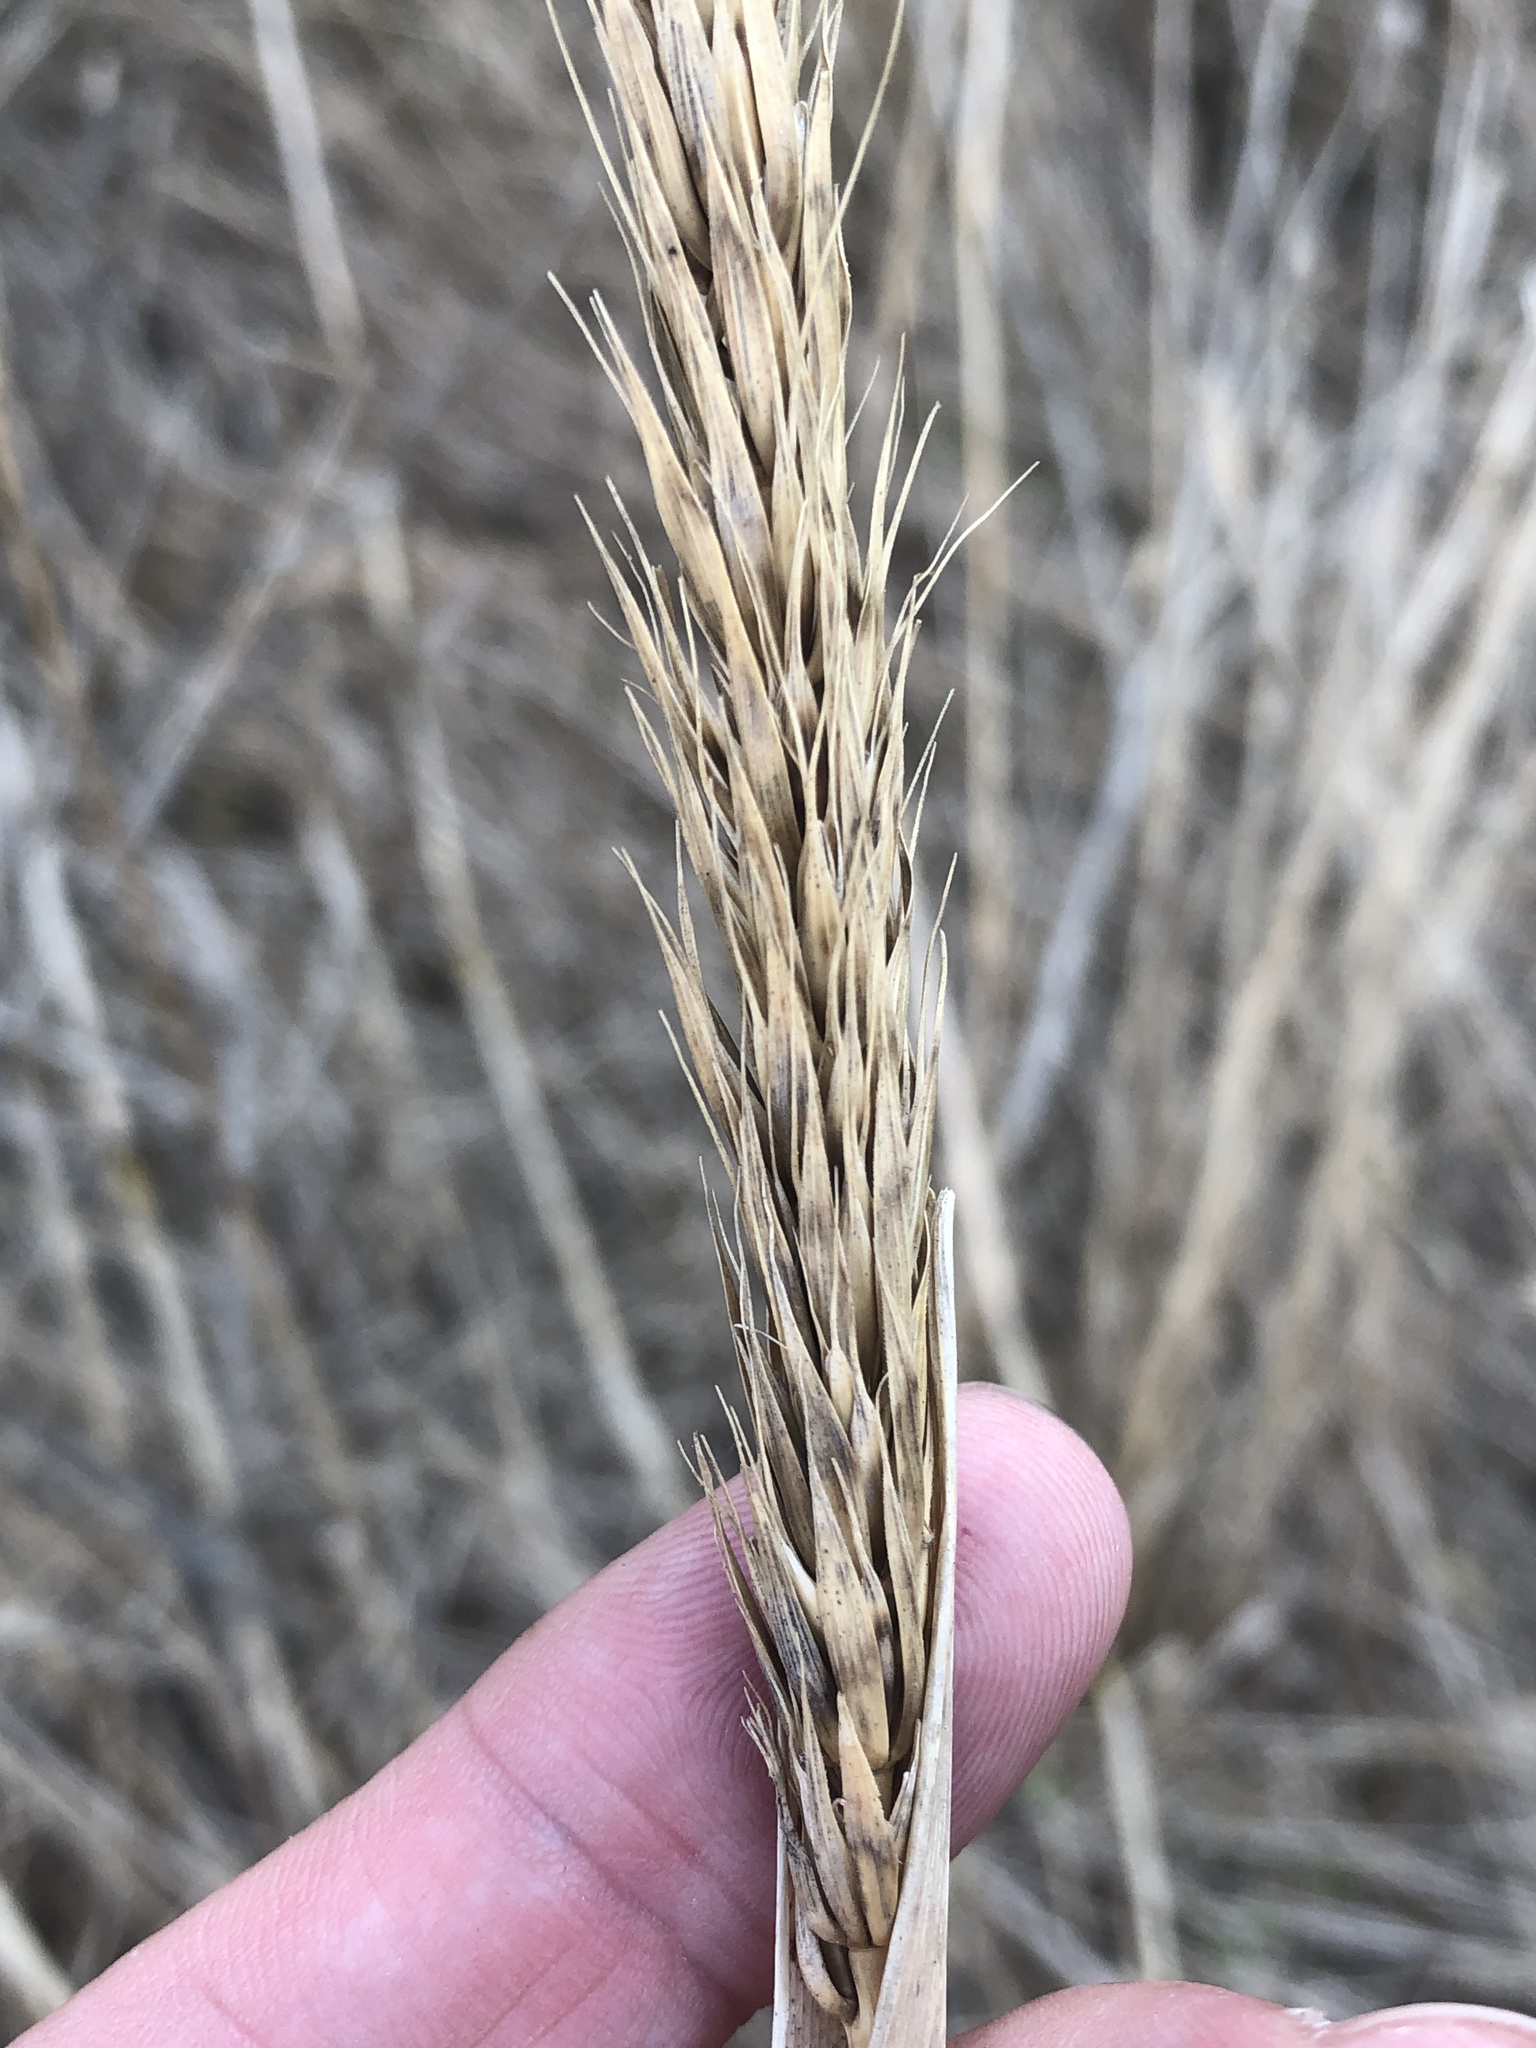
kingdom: Plantae
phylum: Tracheophyta
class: Liliopsida
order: Poales
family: Poaceae
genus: Elymus
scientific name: Elymus virginicus
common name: Common eastern wildrye
